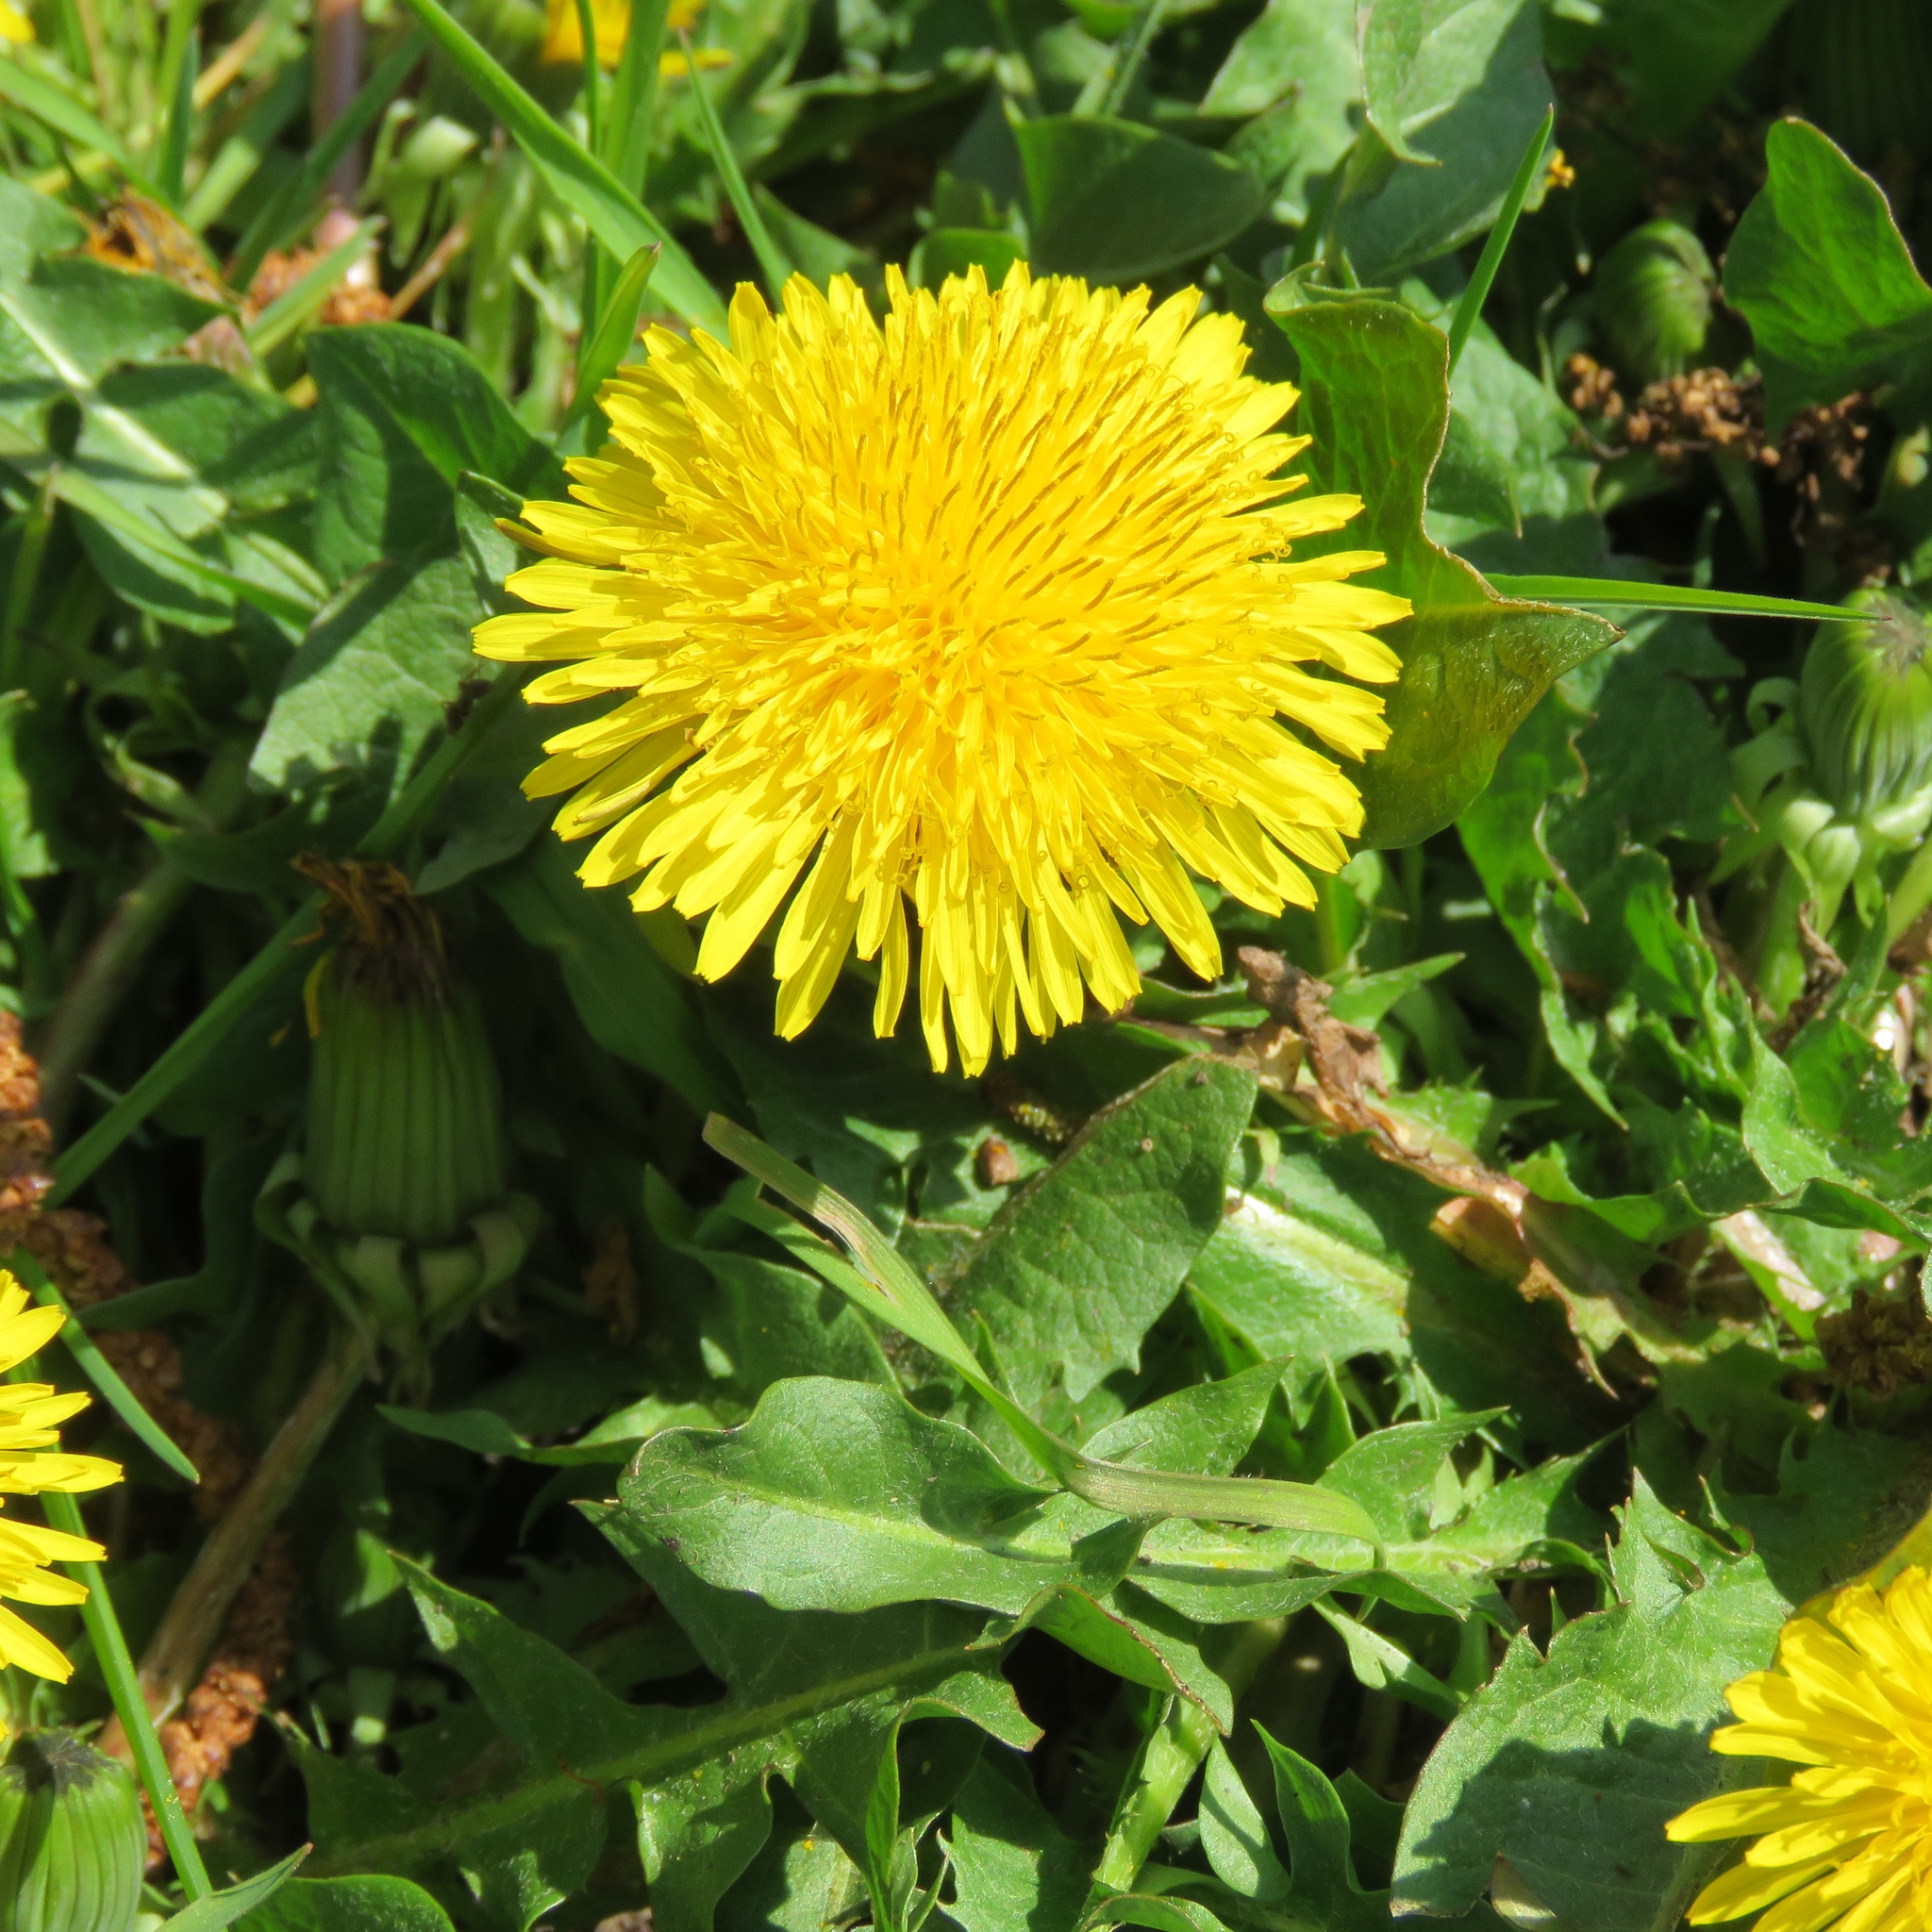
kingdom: Plantae
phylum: Tracheophyta
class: Magnoliopsida
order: Asterales
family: Asteraceae
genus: Taraxacum
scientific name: Taraxacum officinale
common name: Common dandelion
